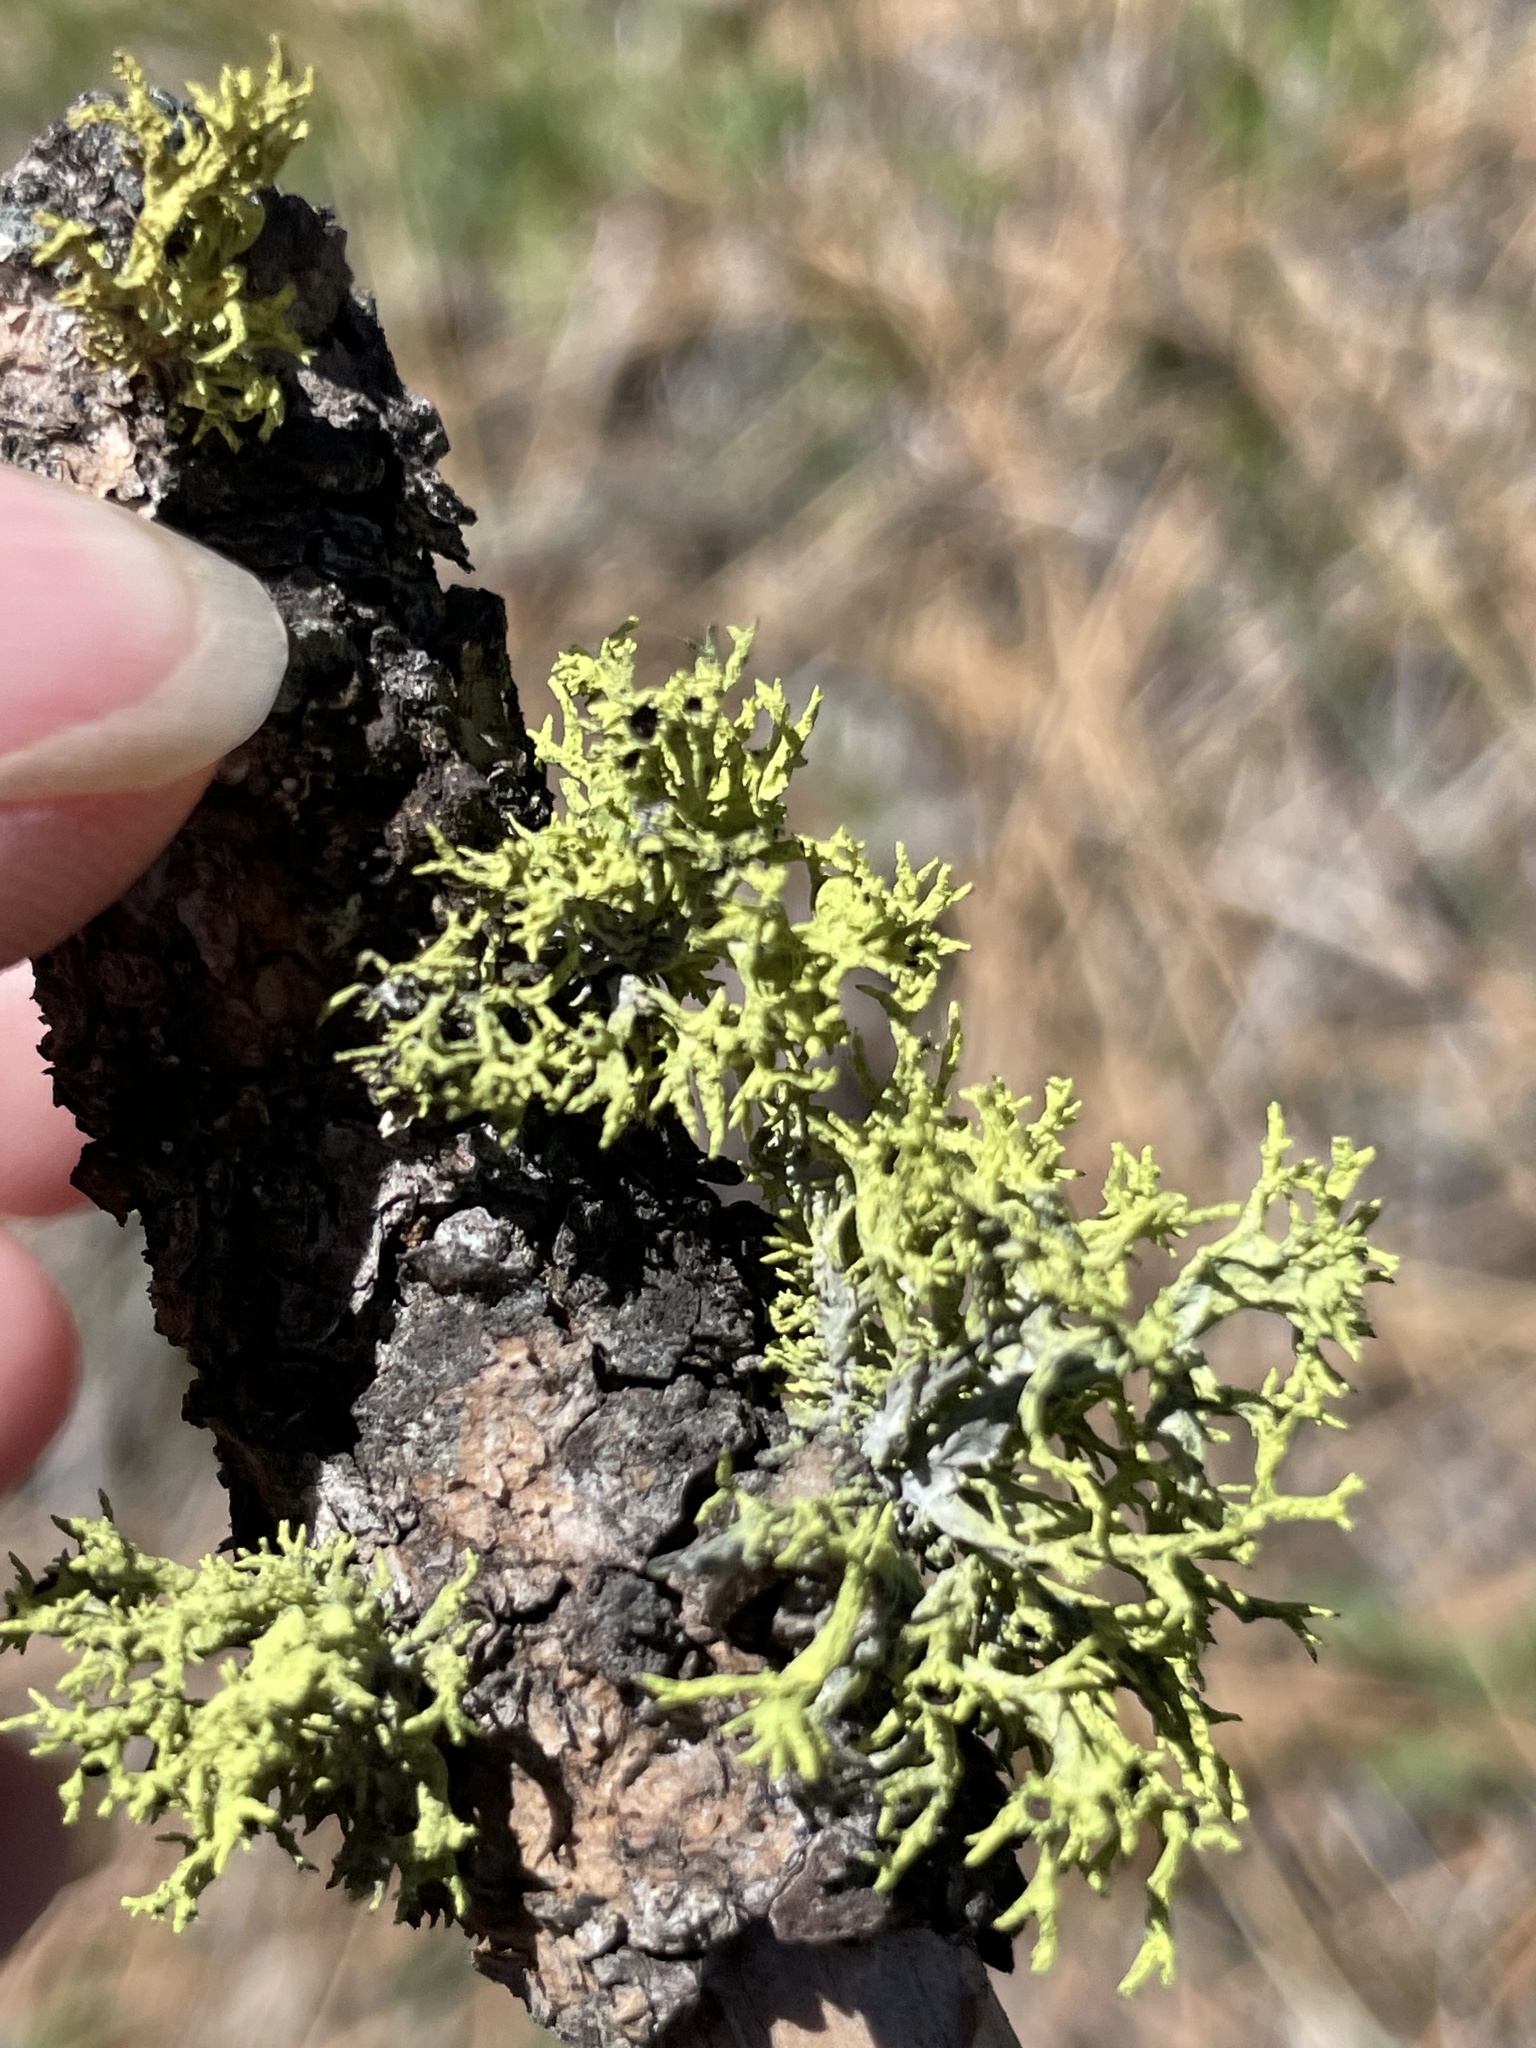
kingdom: Fungi
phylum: Ascomycota
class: Lecanoromycetes
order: Lecanorales
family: Parmeliaceae
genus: Letharia
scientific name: Letharia columbiana
